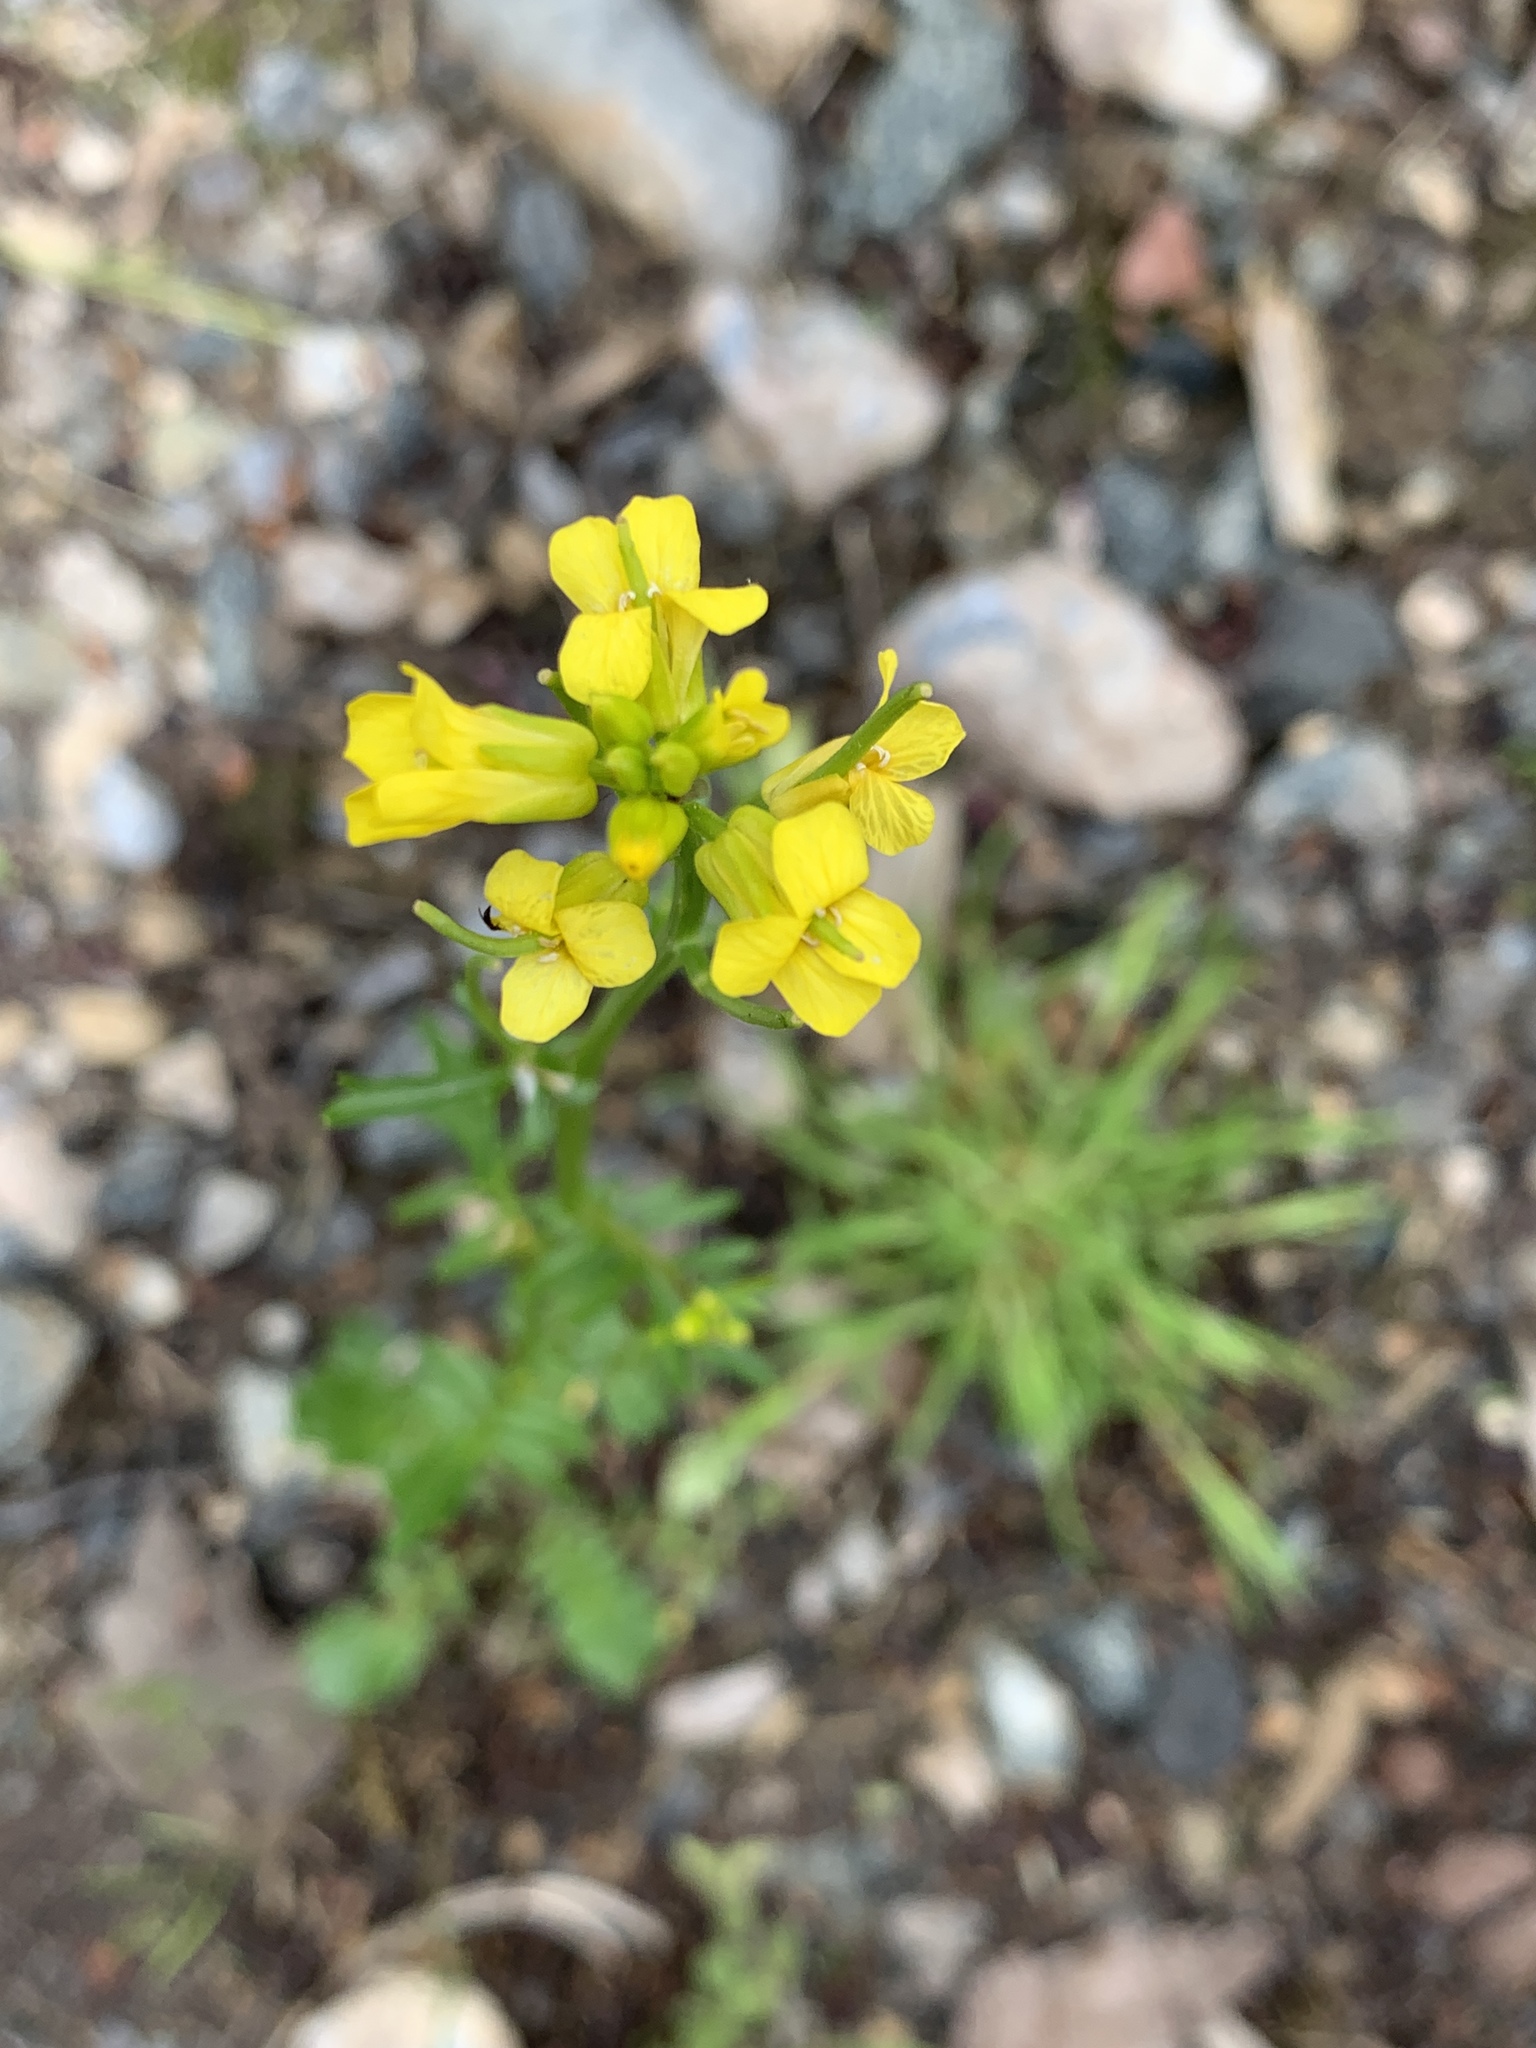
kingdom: Plantae
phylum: Tracheophyta
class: Magnoliopsida
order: Brassicales
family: Brassicaceae
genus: Barbarea
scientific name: Barbarea verna
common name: American cress
